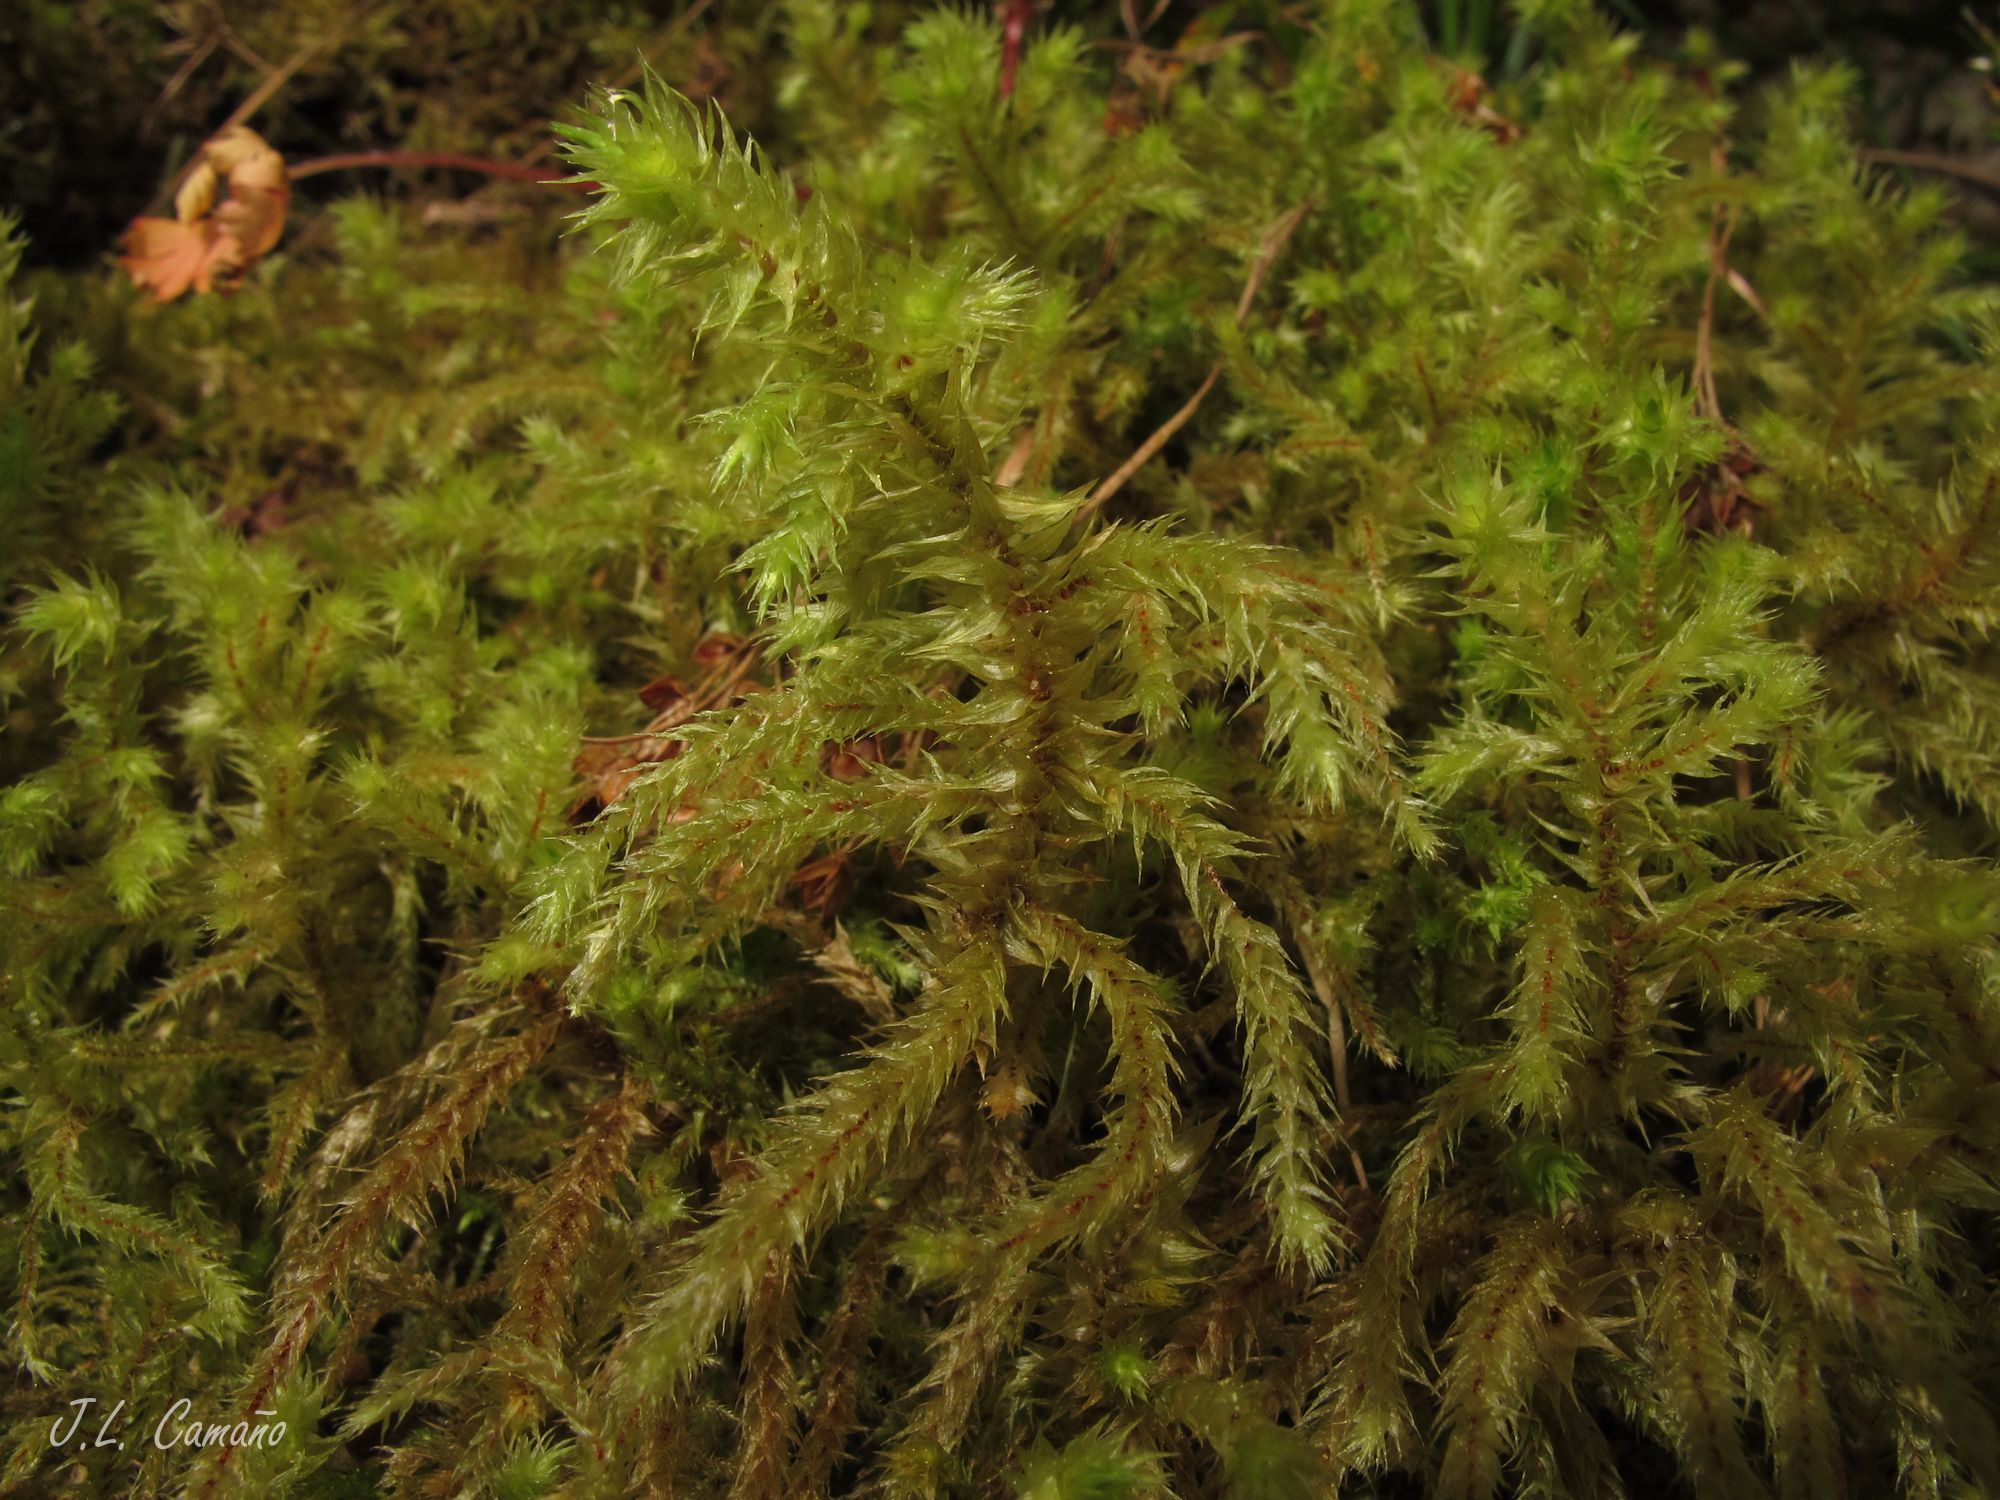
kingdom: Plantae
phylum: Bryophyta
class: Bryopsida
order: Hypnales
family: Hylocomiaceae
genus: Hylocomiadelphus
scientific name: Hylocomiadelphus triquetrus
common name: Rough goose neck moss
